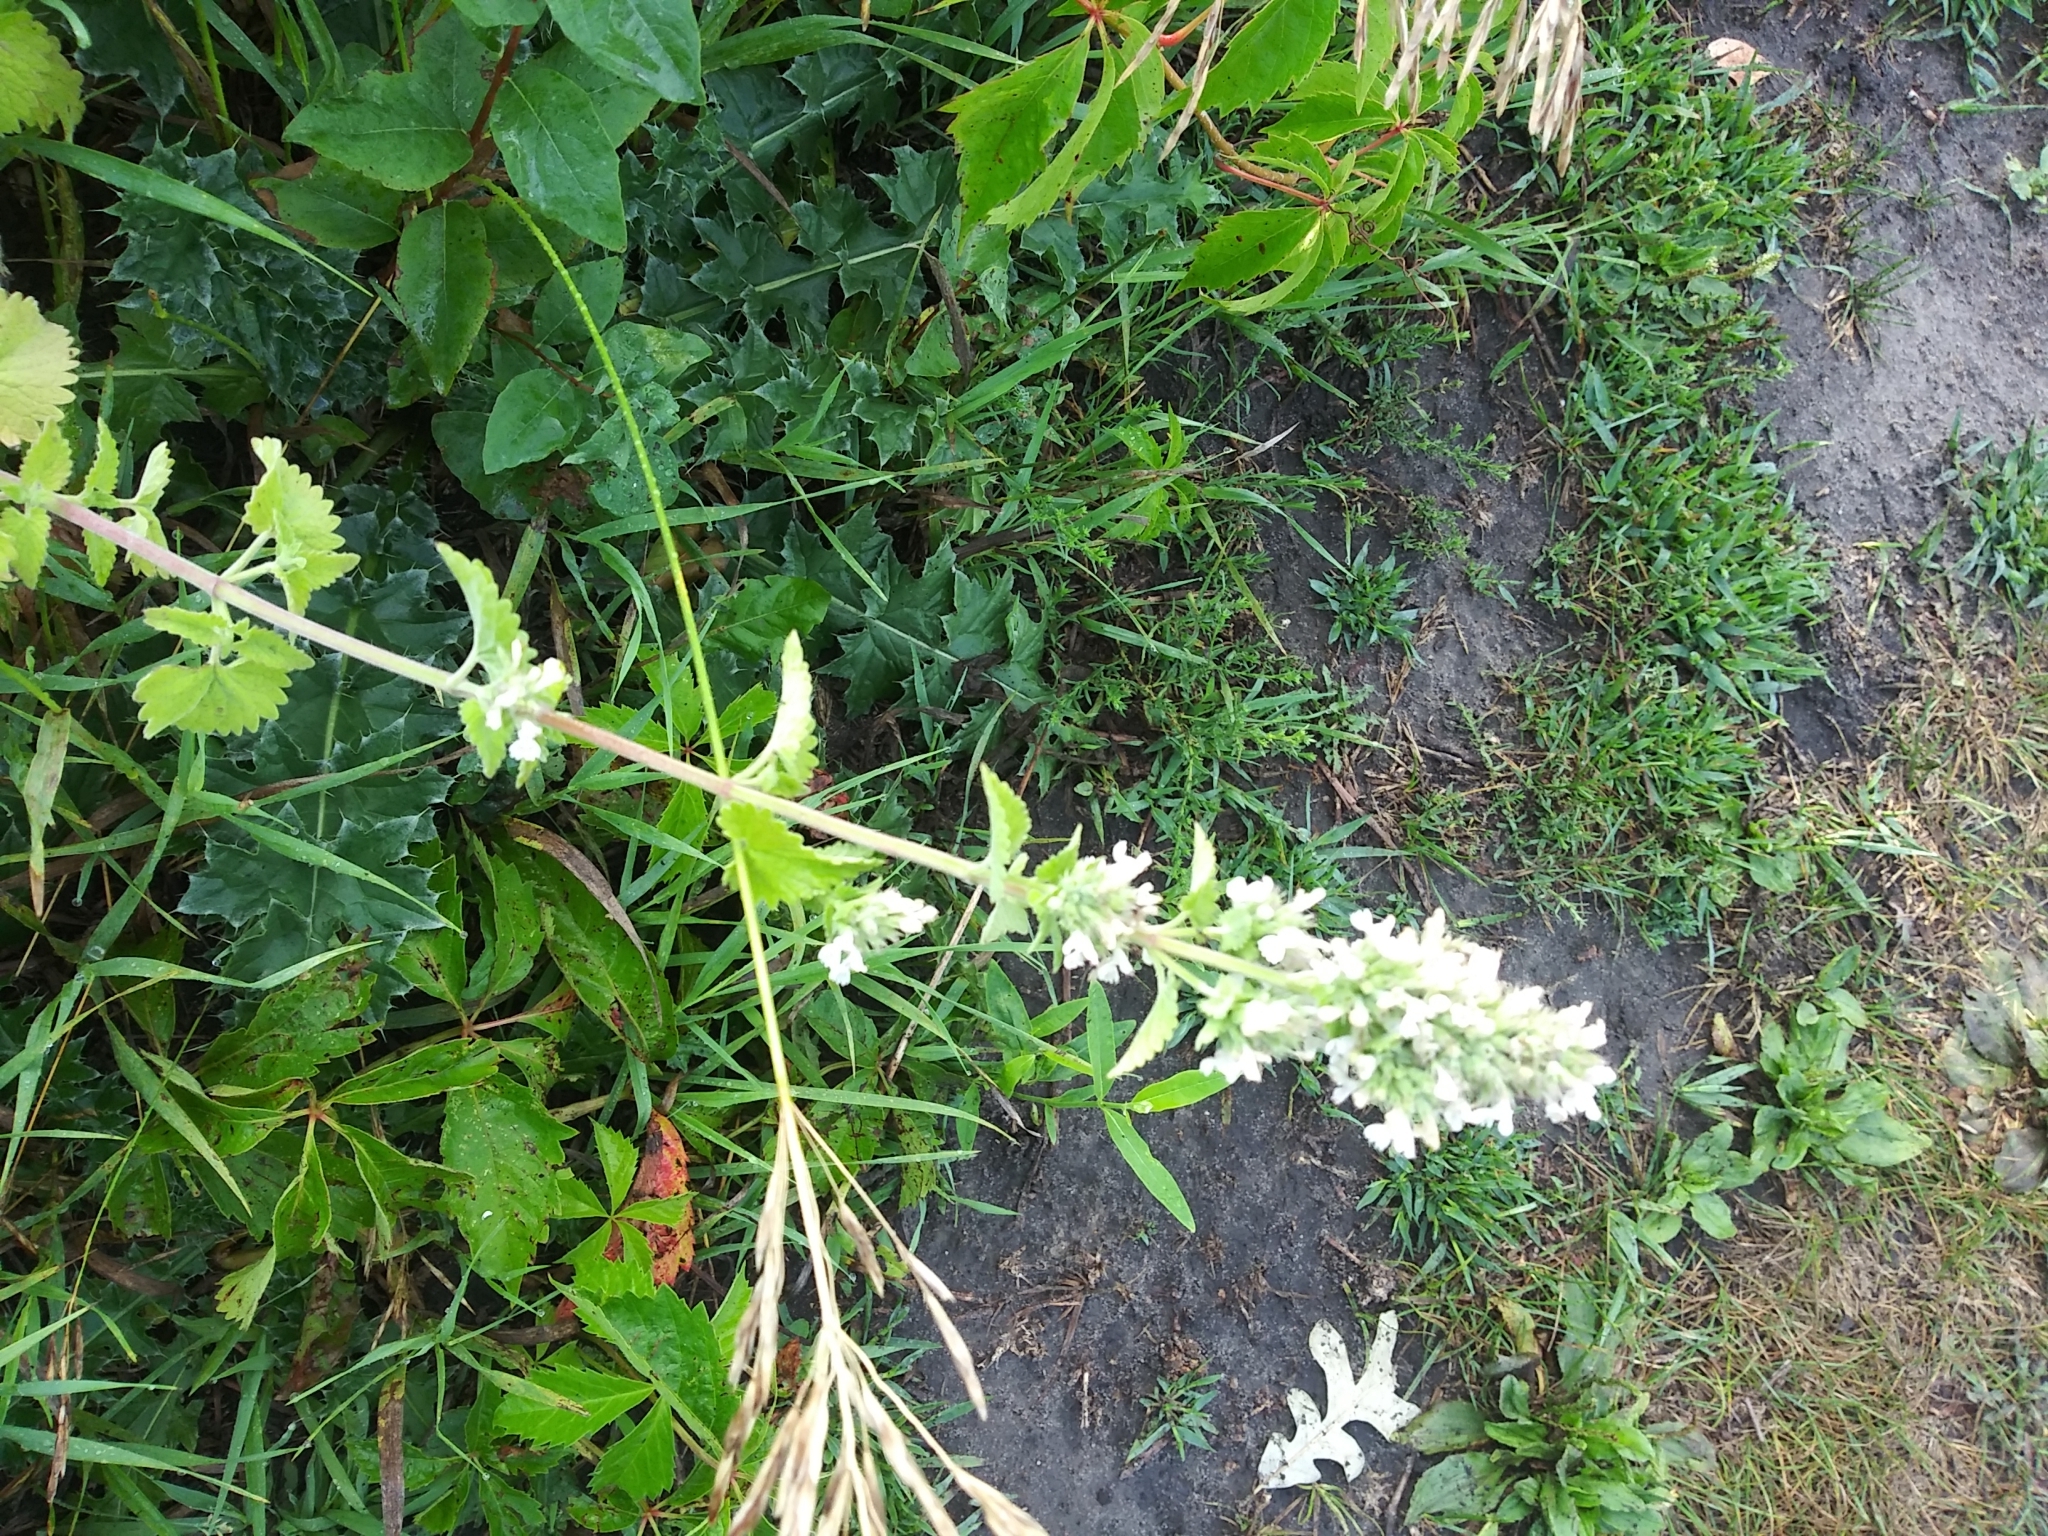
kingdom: Plantae
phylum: Tracheophyta
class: Magnoliopsida
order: Lamiales
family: Lamiaceae
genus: Nepeta
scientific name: Nepeta cataria
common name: Catnip
